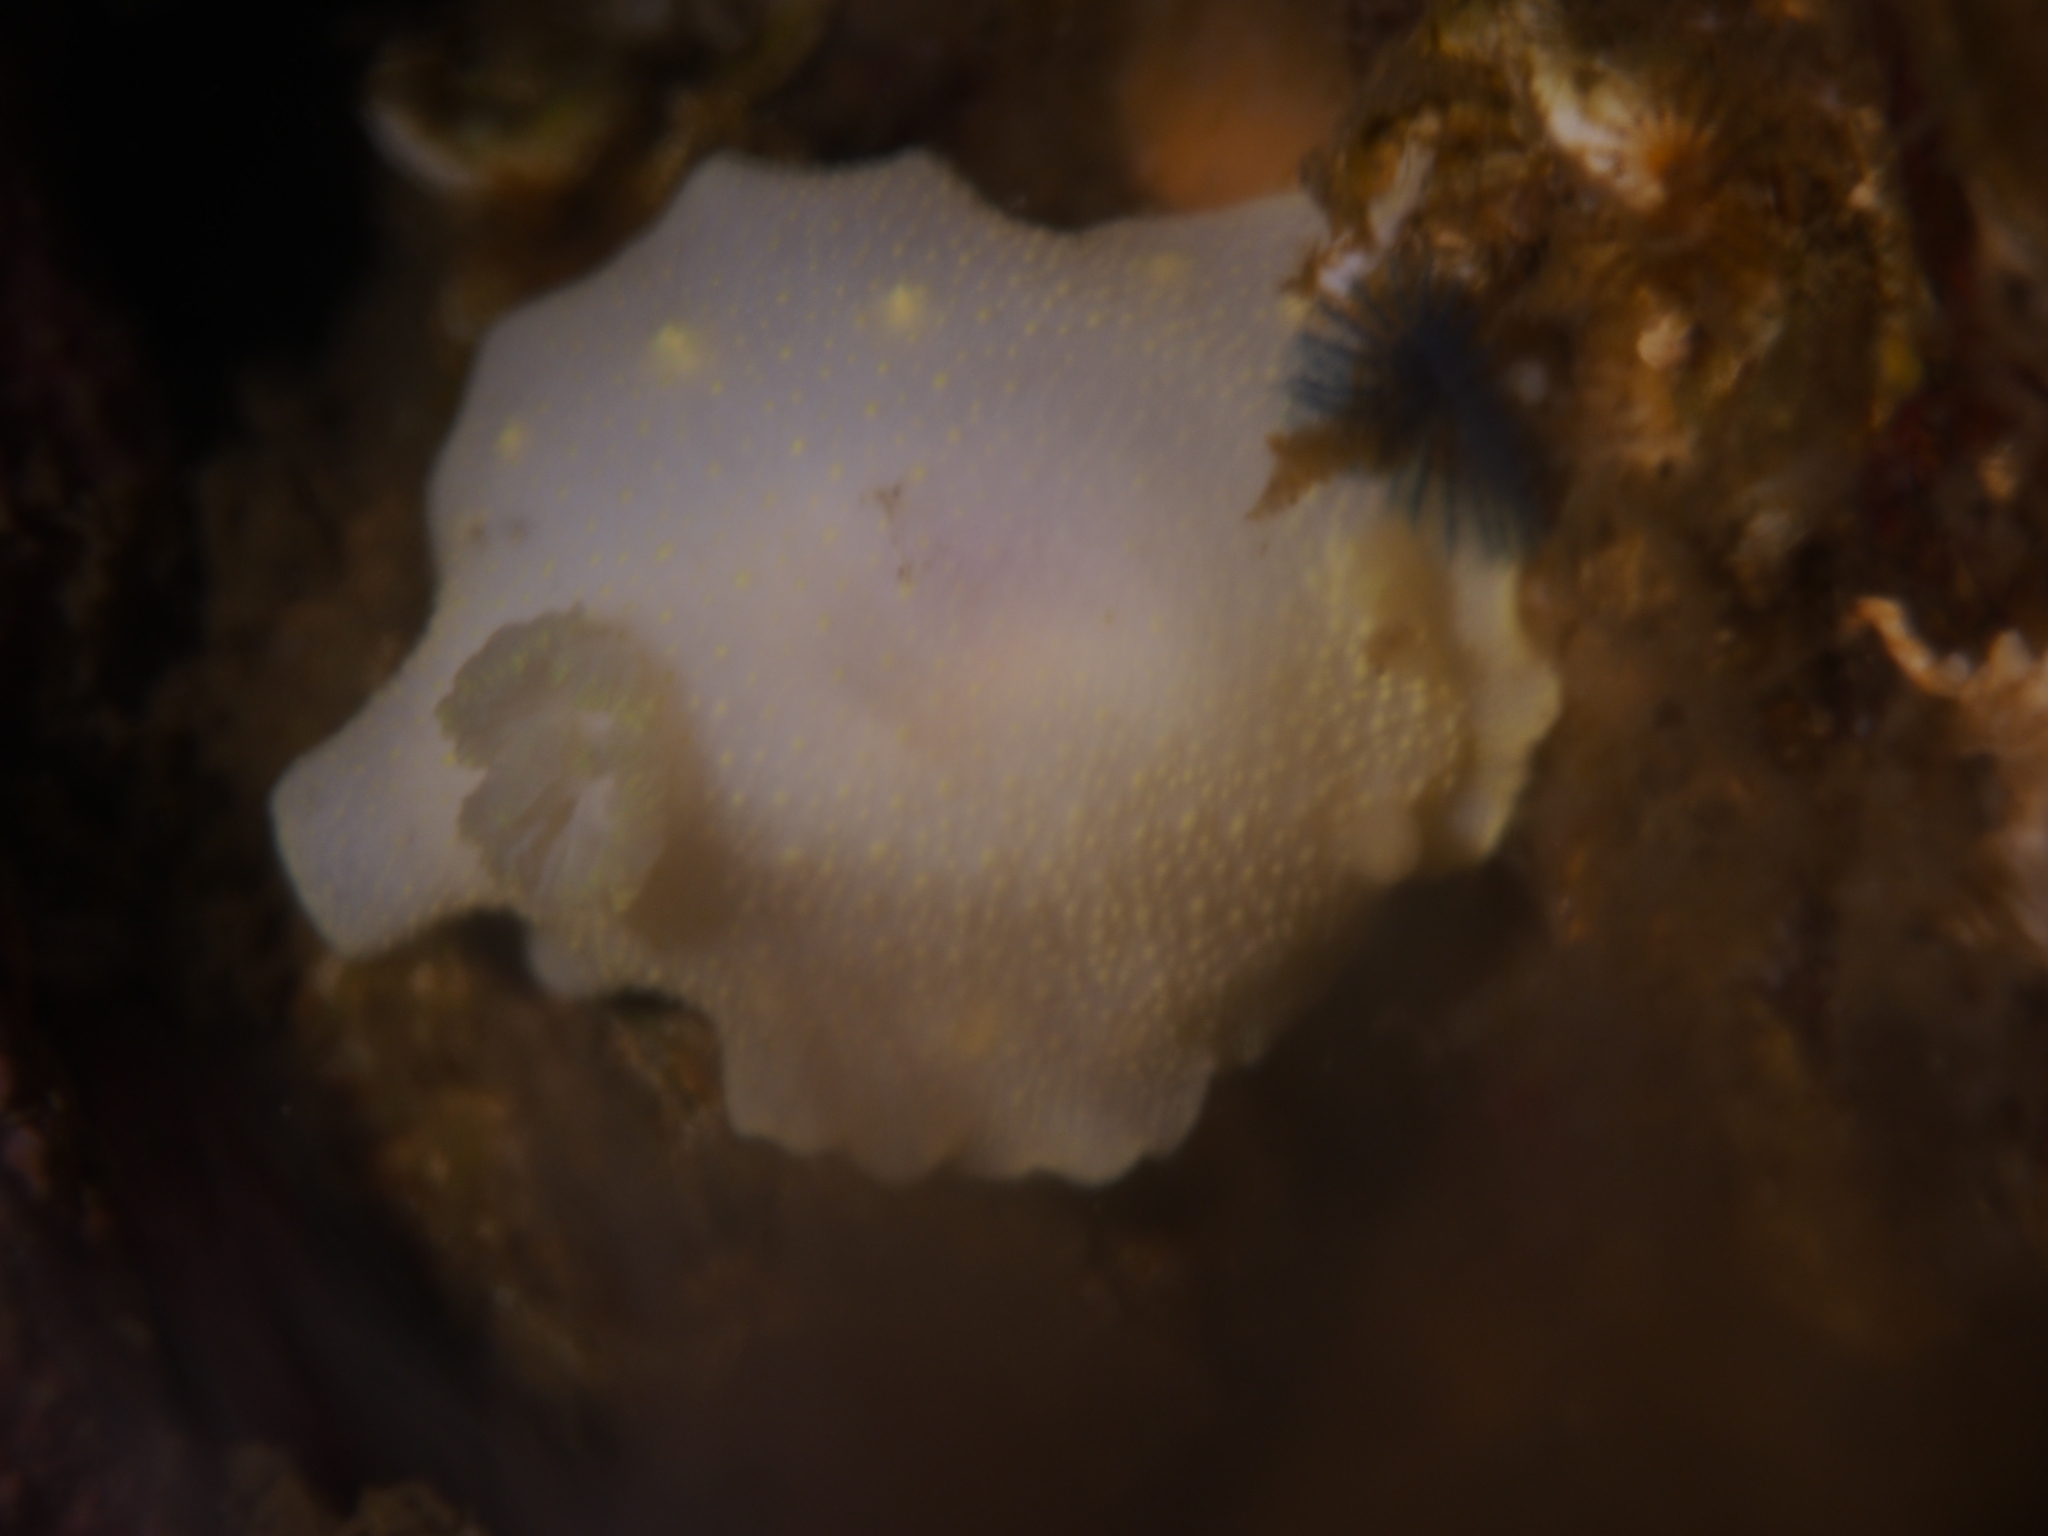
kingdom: Animalia
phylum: Mollusca
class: Gastropoda
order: Nudibranchia
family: Cadlinidae
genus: Cadlina
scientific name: Cadlina laevis
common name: White atlantic cadlina
